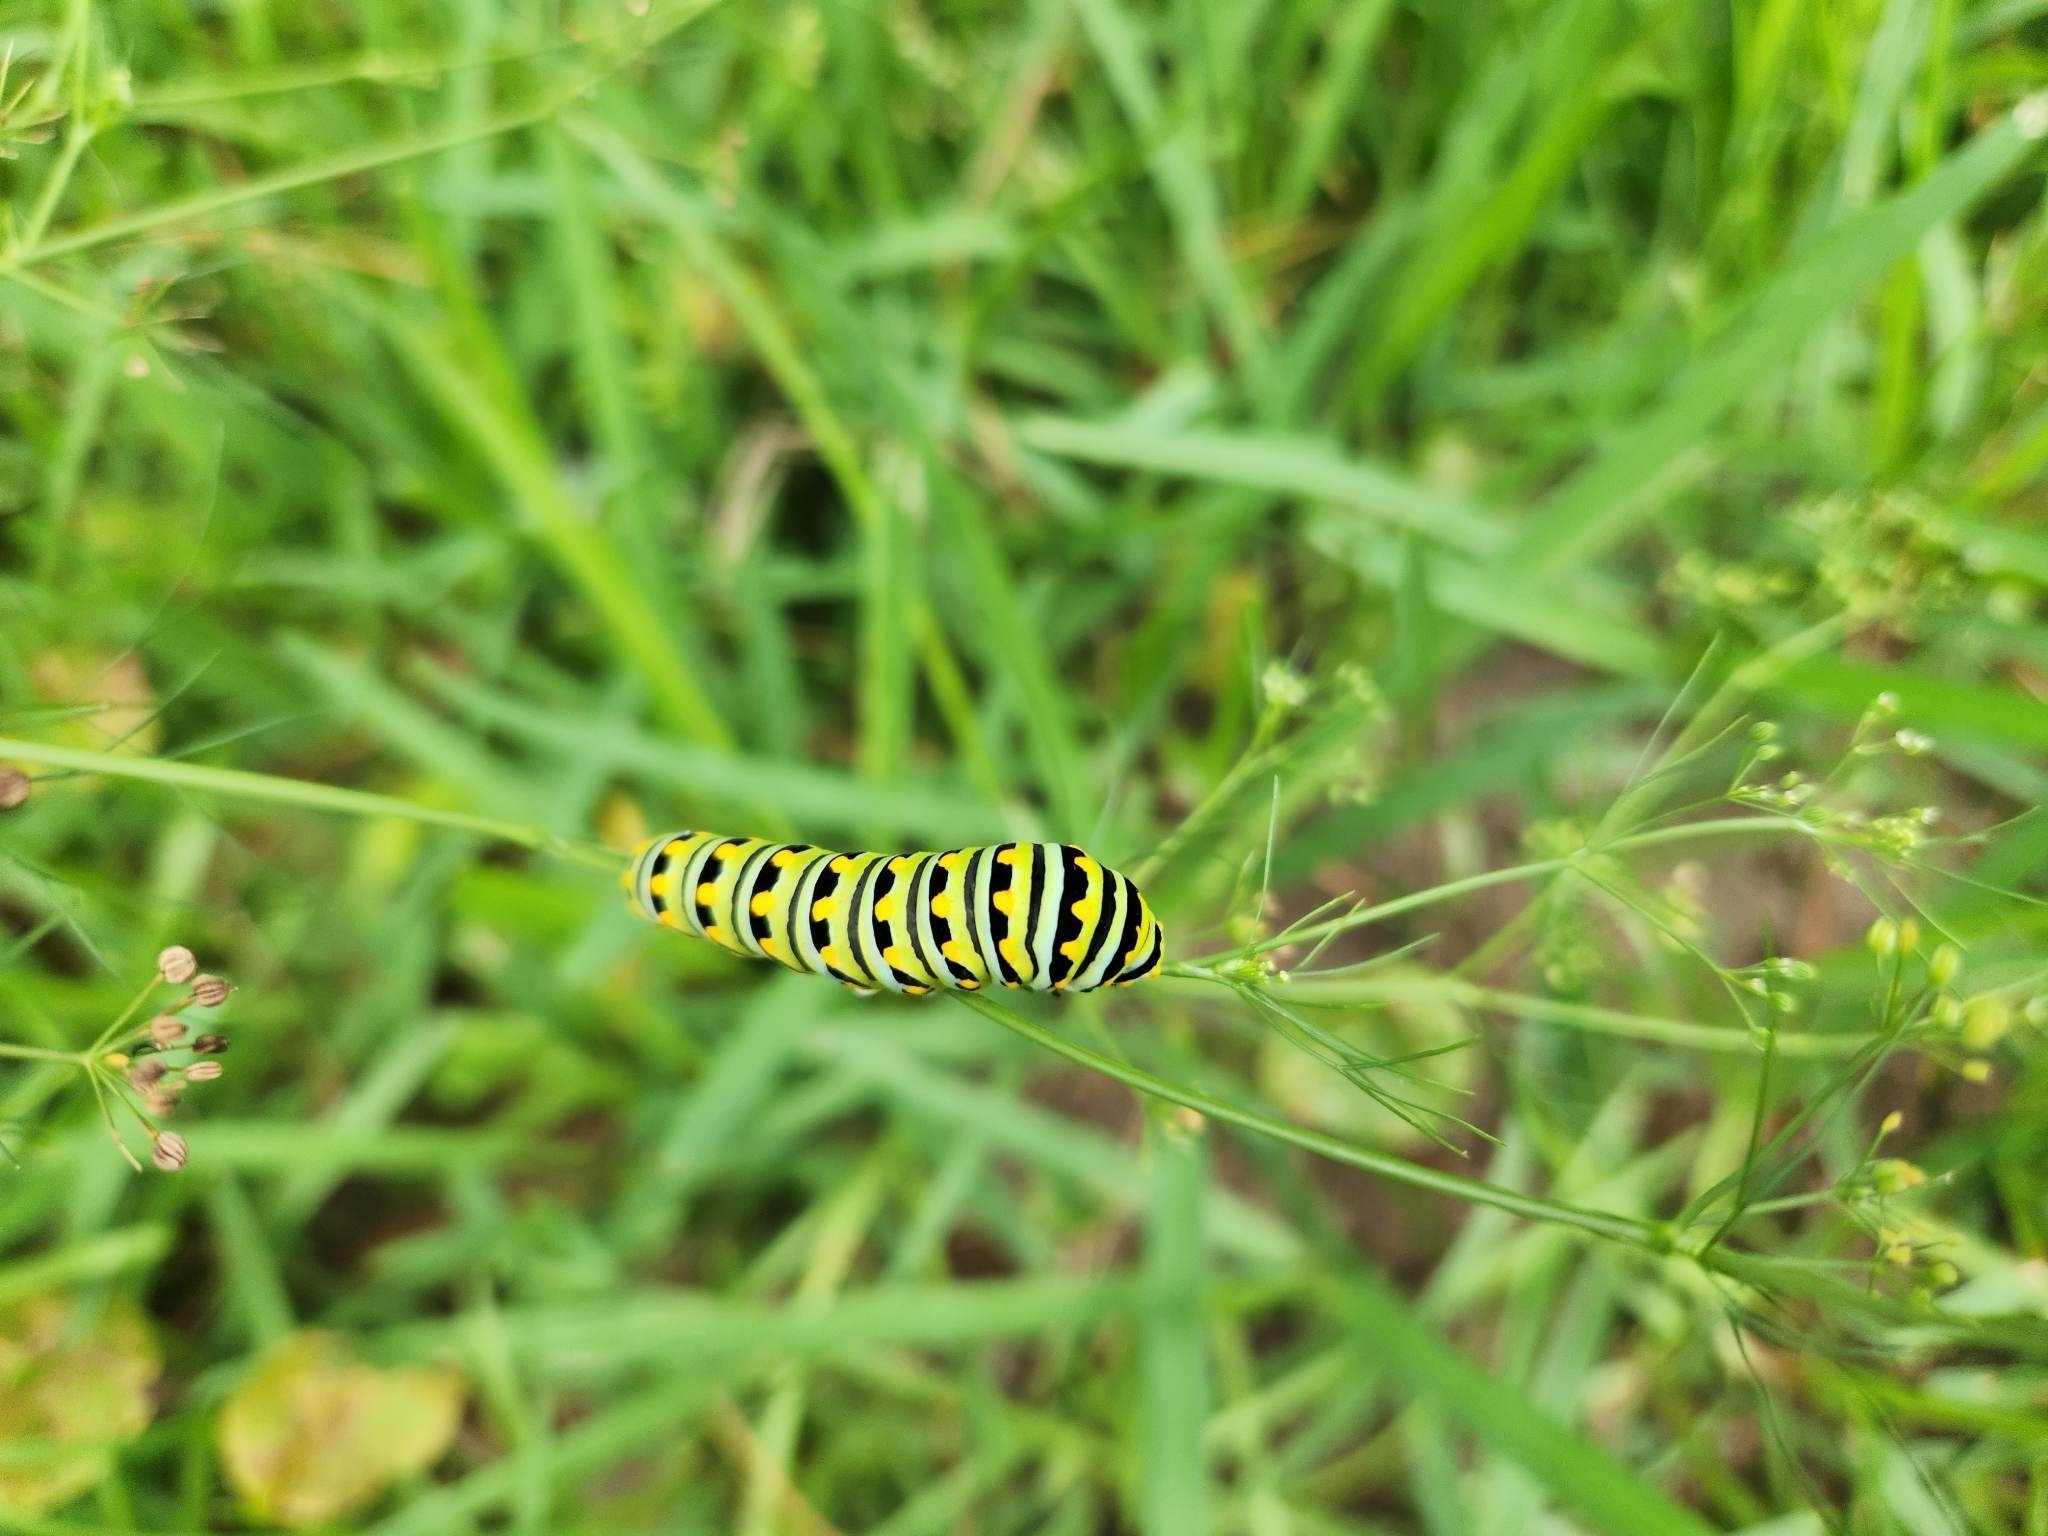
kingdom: Animalia
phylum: Arthropoda
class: Insecta
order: Lepidoptera
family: Papilionidae
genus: Papilio
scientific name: Papilio polyxenes
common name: Black swallowtail
